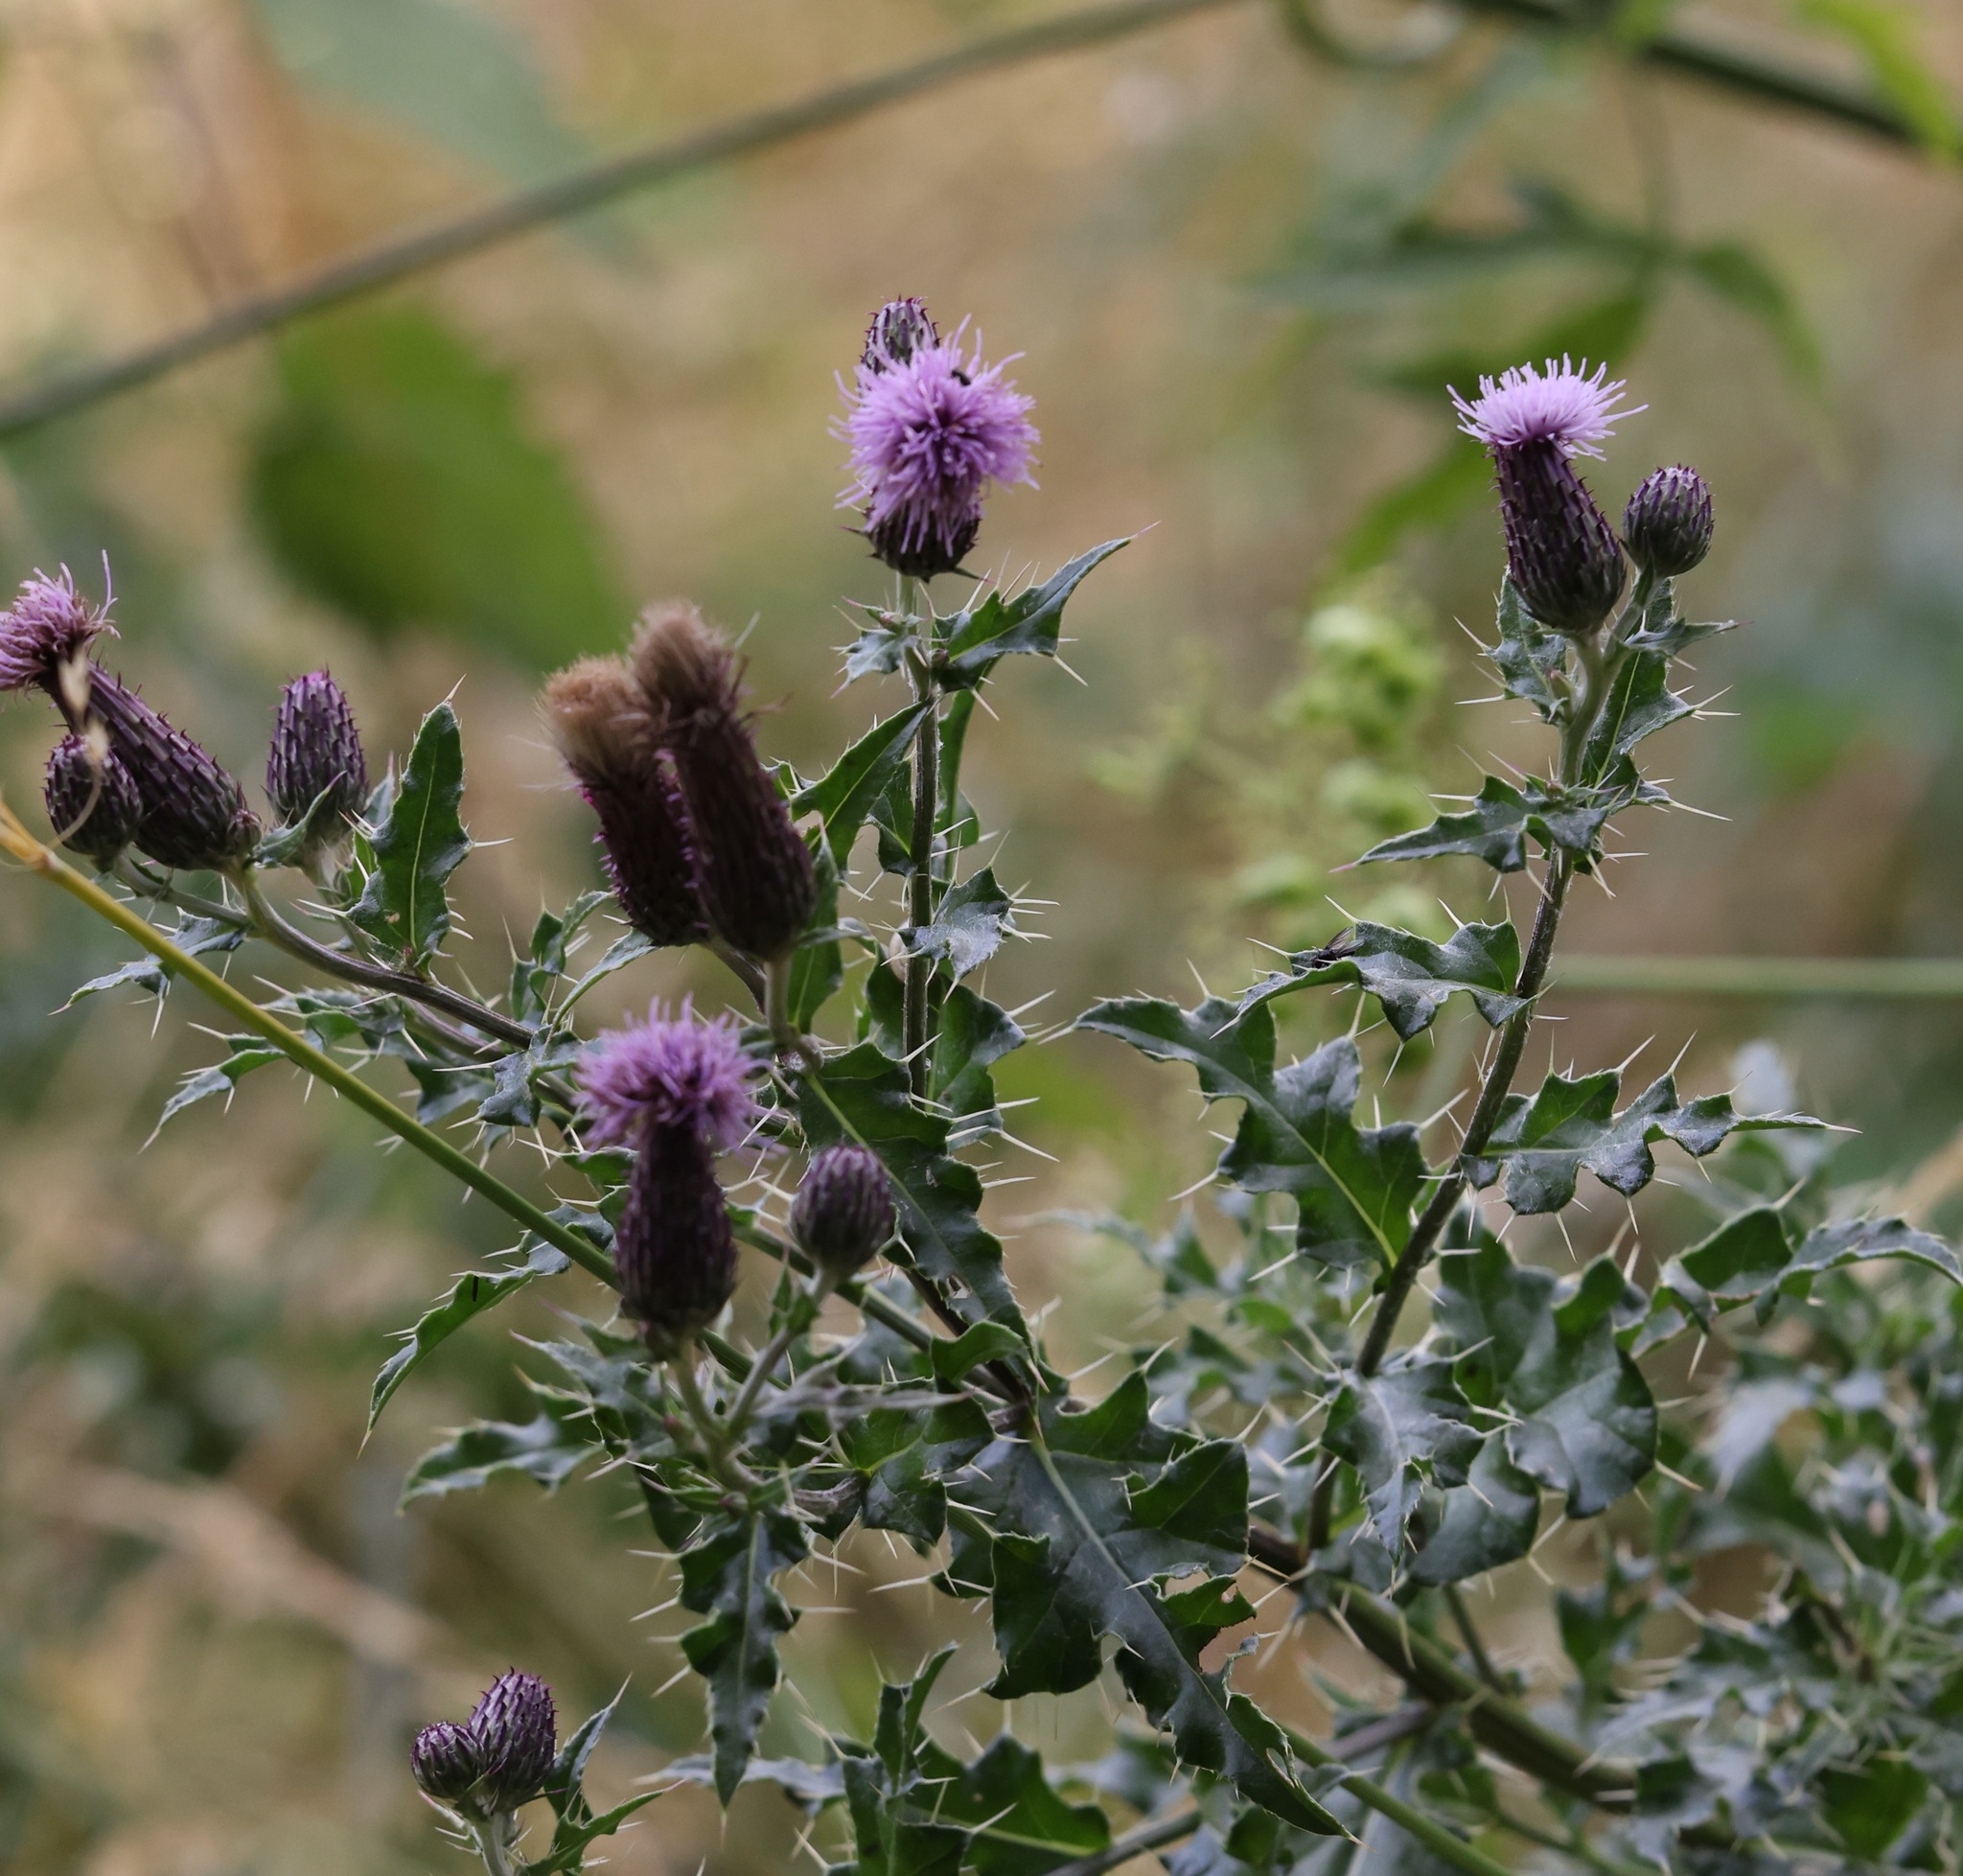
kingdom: Plantae
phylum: Tracheophyta
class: Magnoliopsida
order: Asterales
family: Asteraceae
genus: Cirsium
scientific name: Cirsium arvense
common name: Creeping thistle
